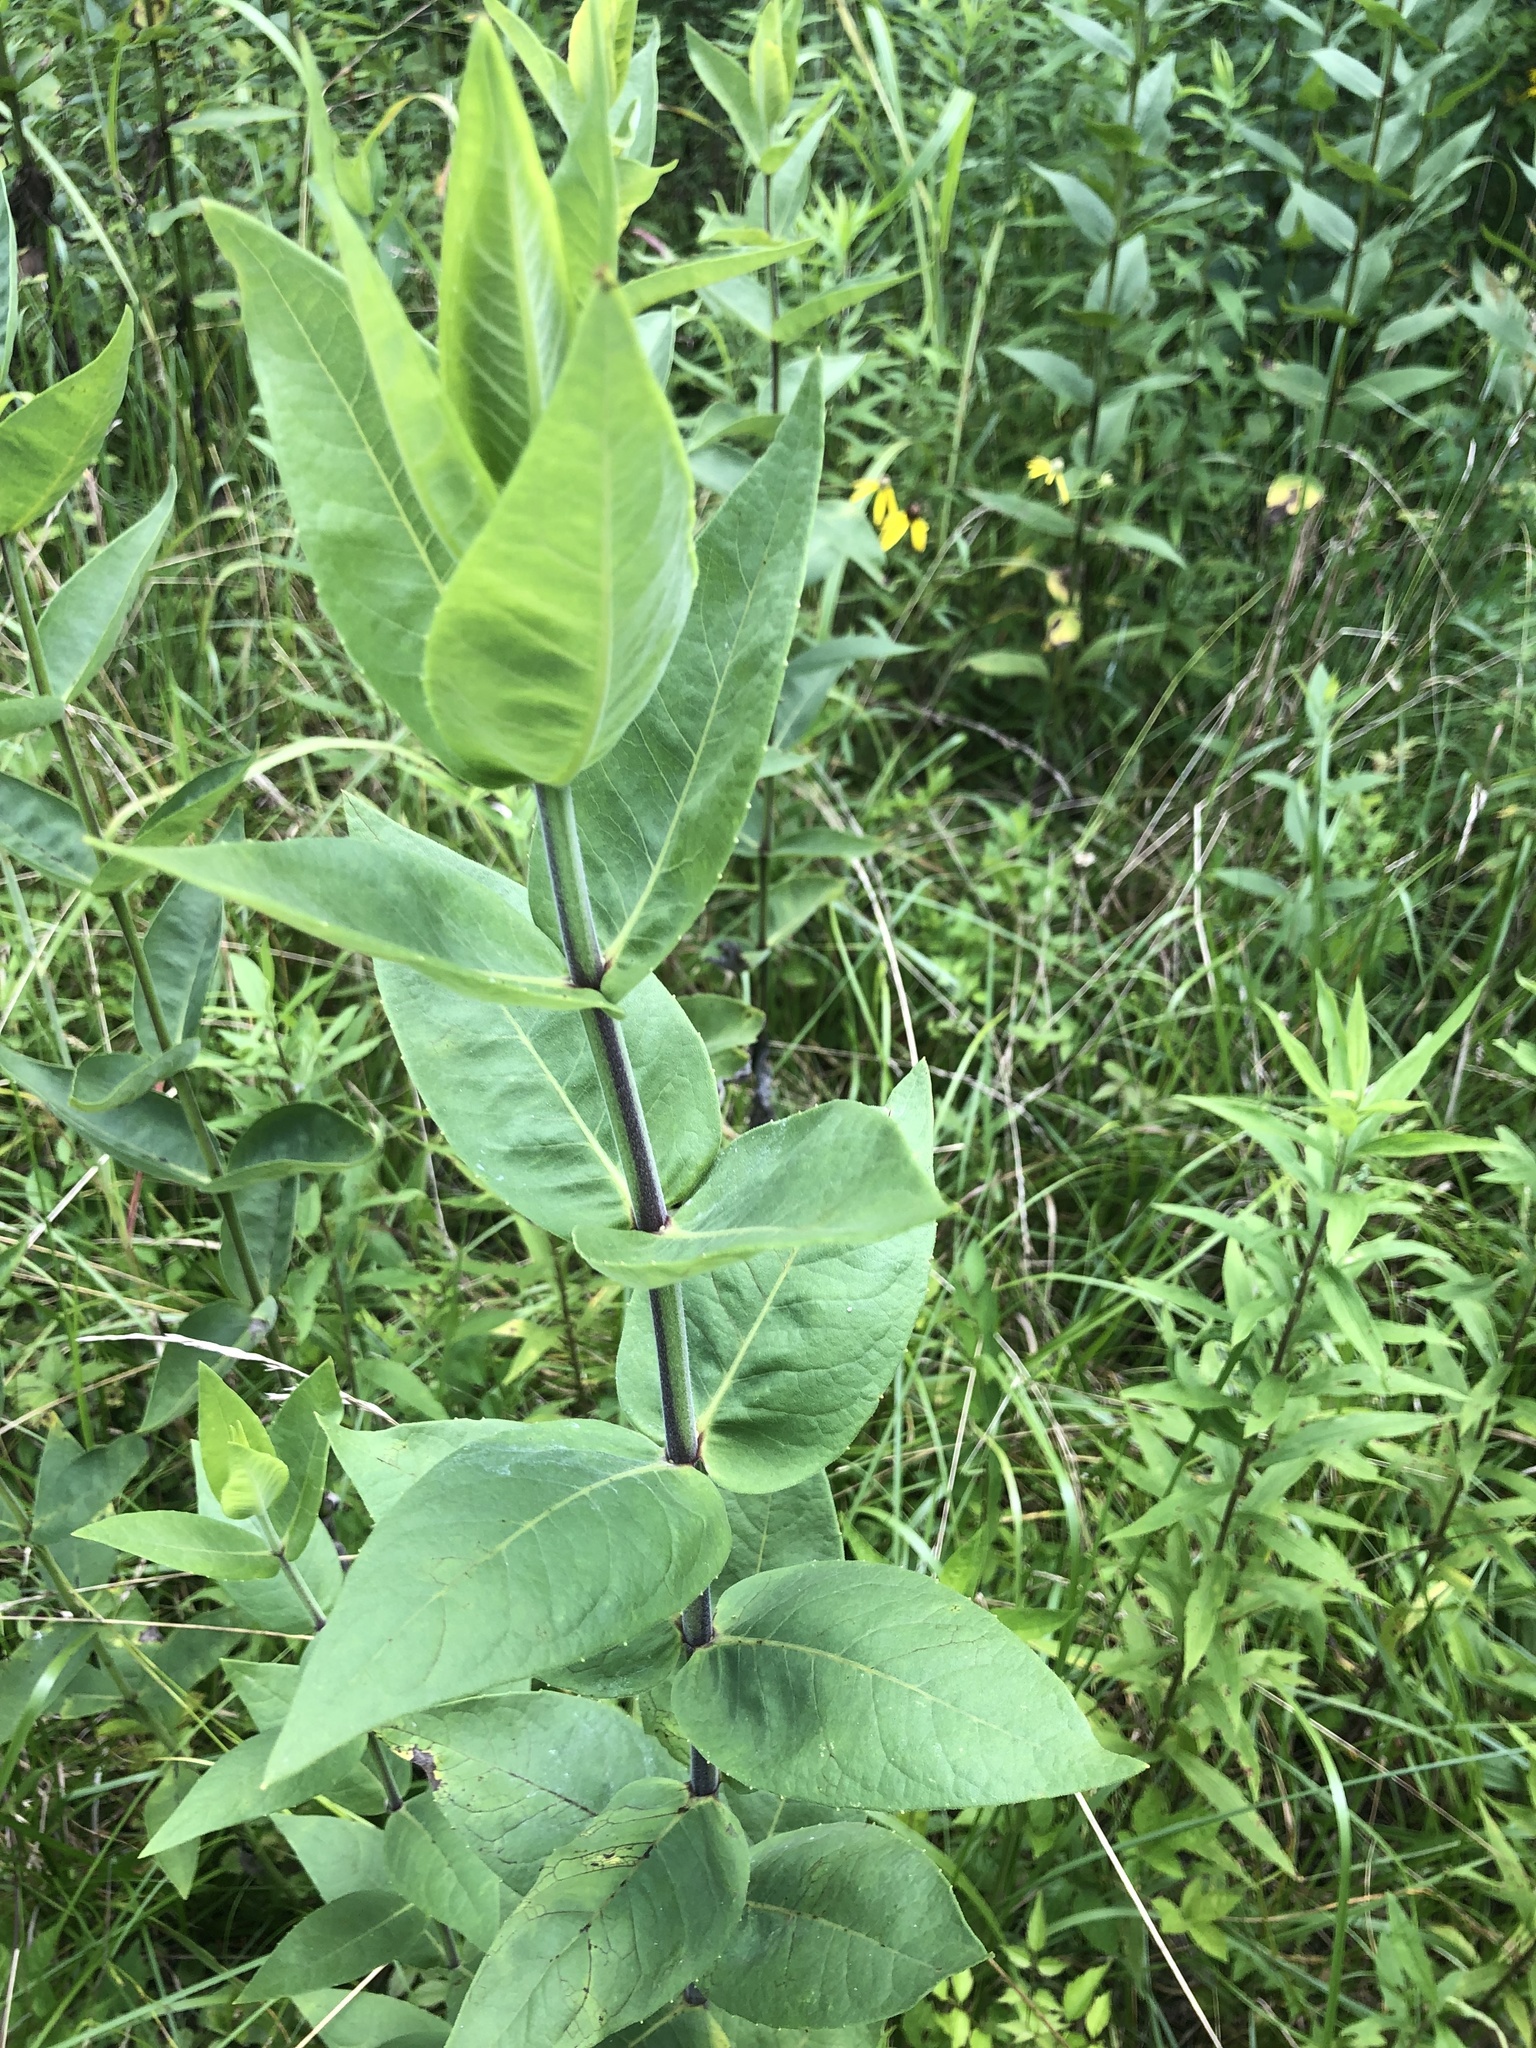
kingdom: Plantae
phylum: Tracheophyta
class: Magnoliopsida
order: Asterales
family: Asteraceae
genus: Silphium
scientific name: Silphium integrifolium
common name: Whole-leaf rosinweed
